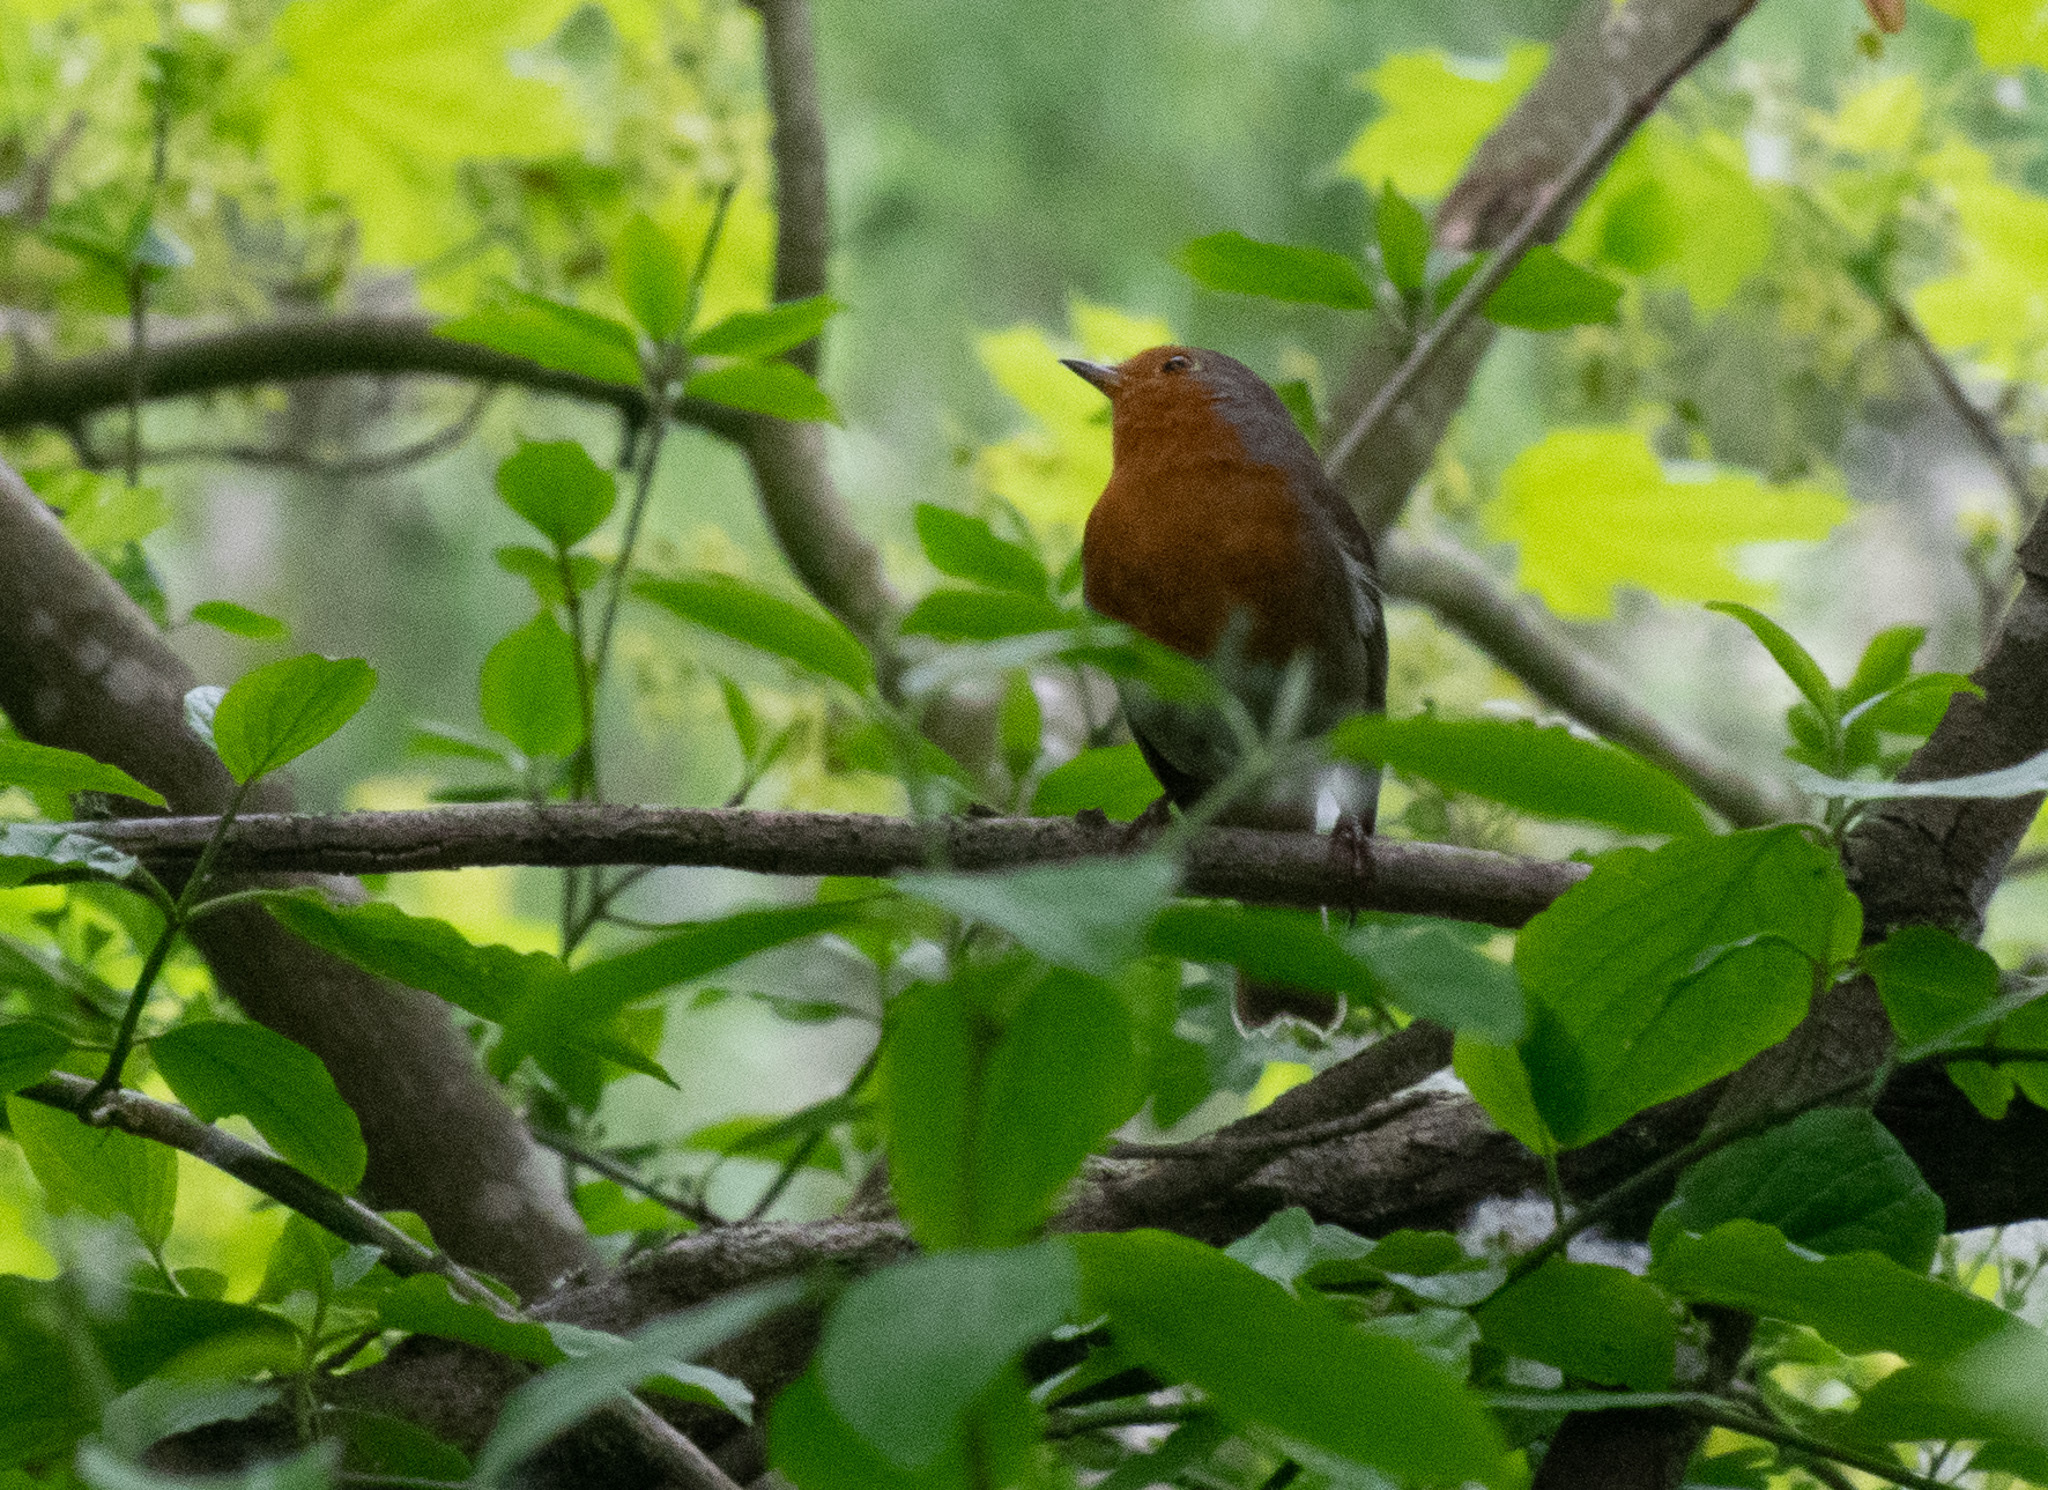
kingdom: Animalia
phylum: Chordata
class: Aves
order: Passeriformes
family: Muscicapidae
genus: Erithacus
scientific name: Erithacus rubecula
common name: European robin
